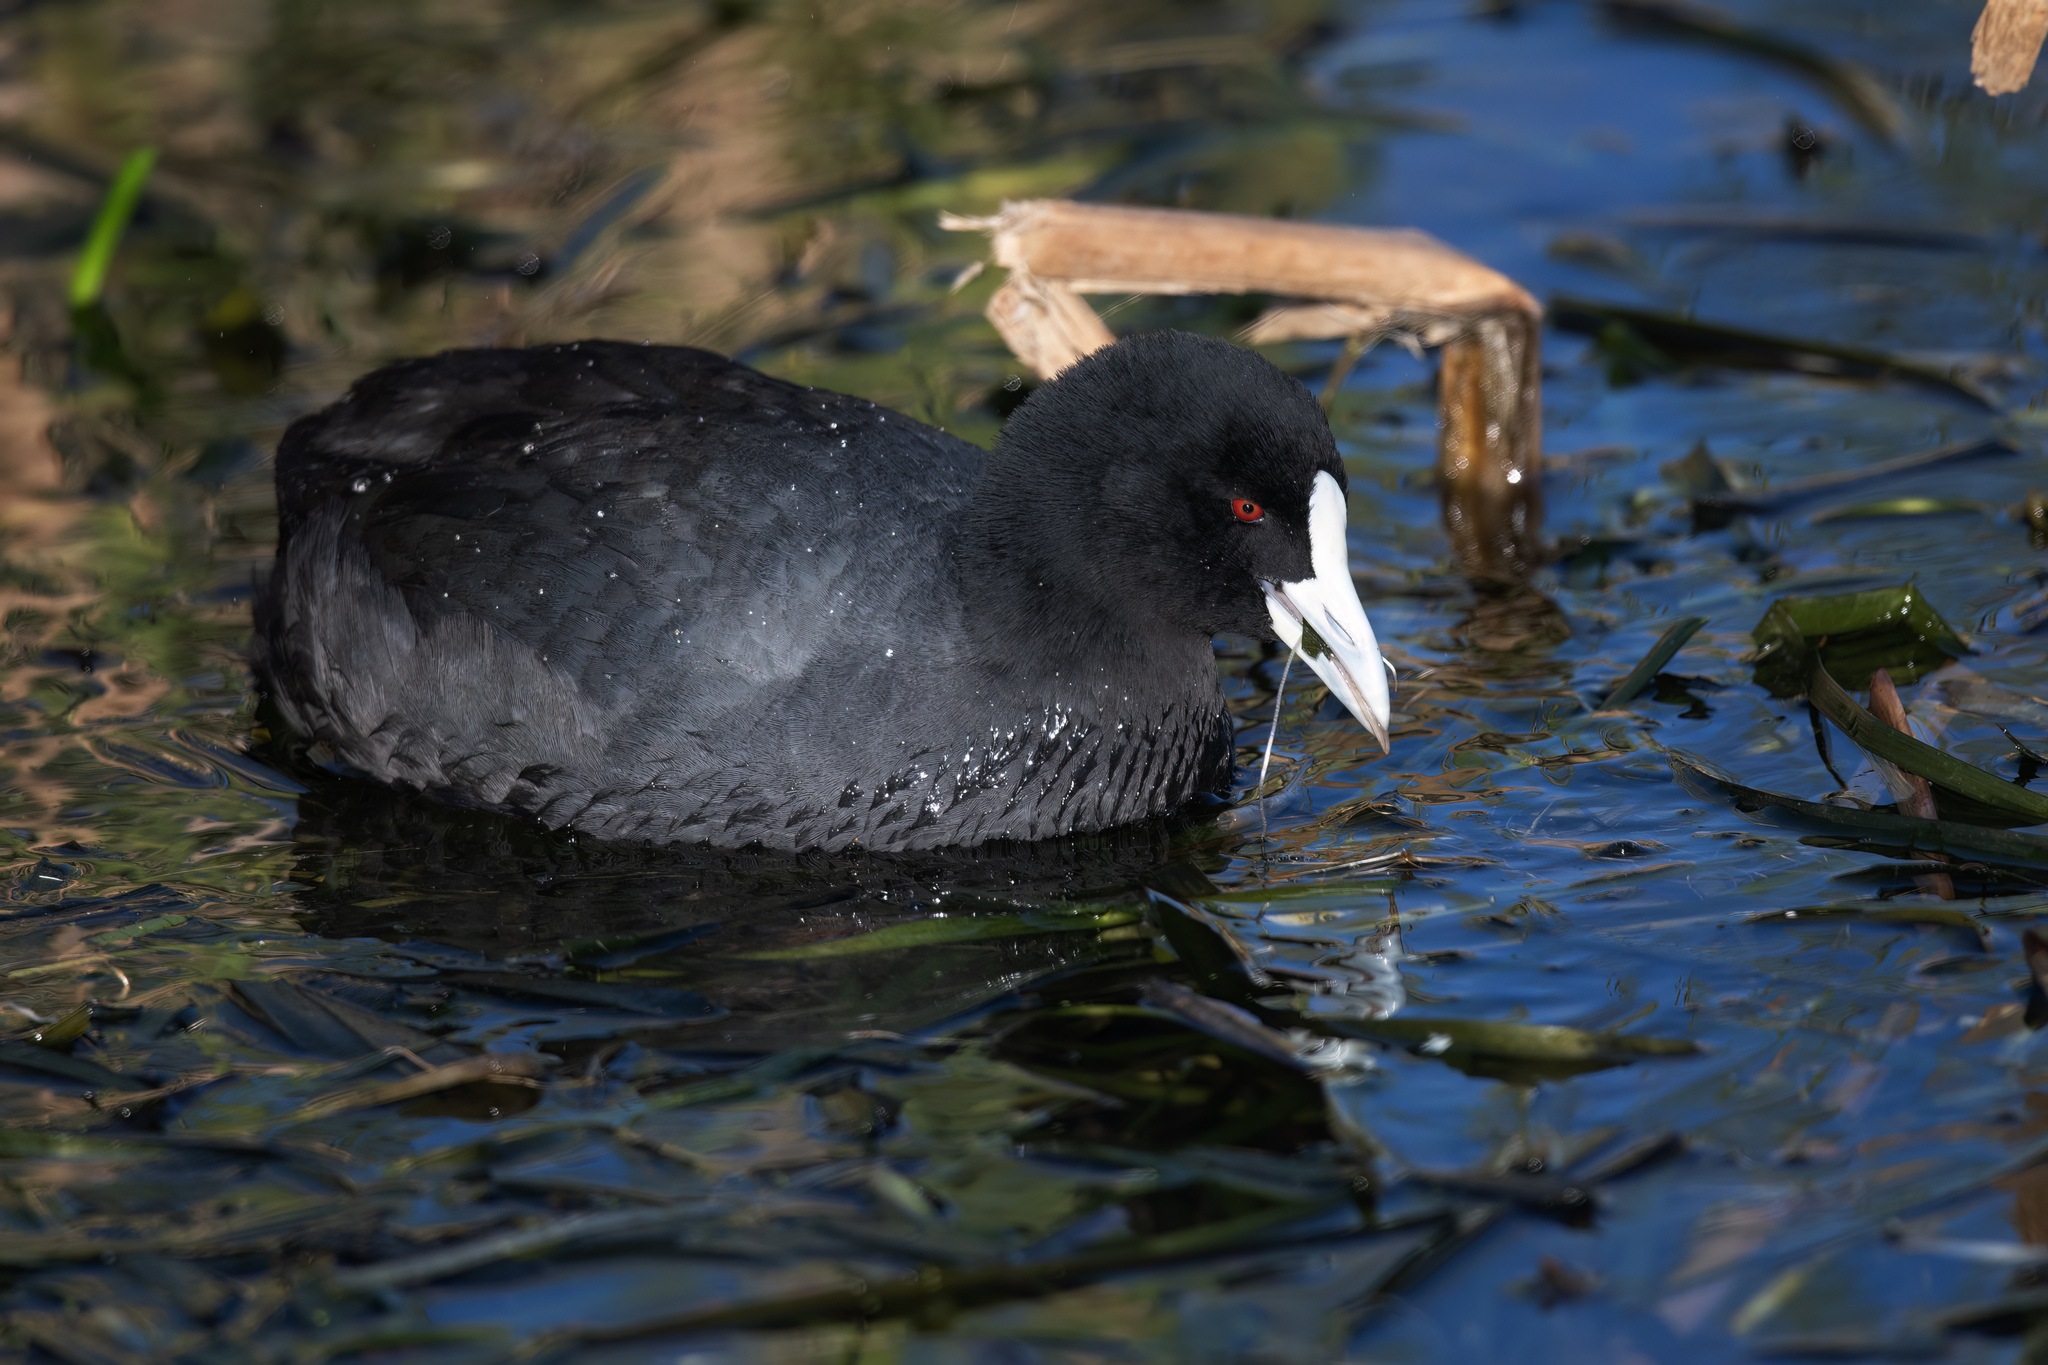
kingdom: Animalia
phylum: Chordata
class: Aves
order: Gruiformes
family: Rallidae
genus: Fulica
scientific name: Fulica atra
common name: Eurasian coot
